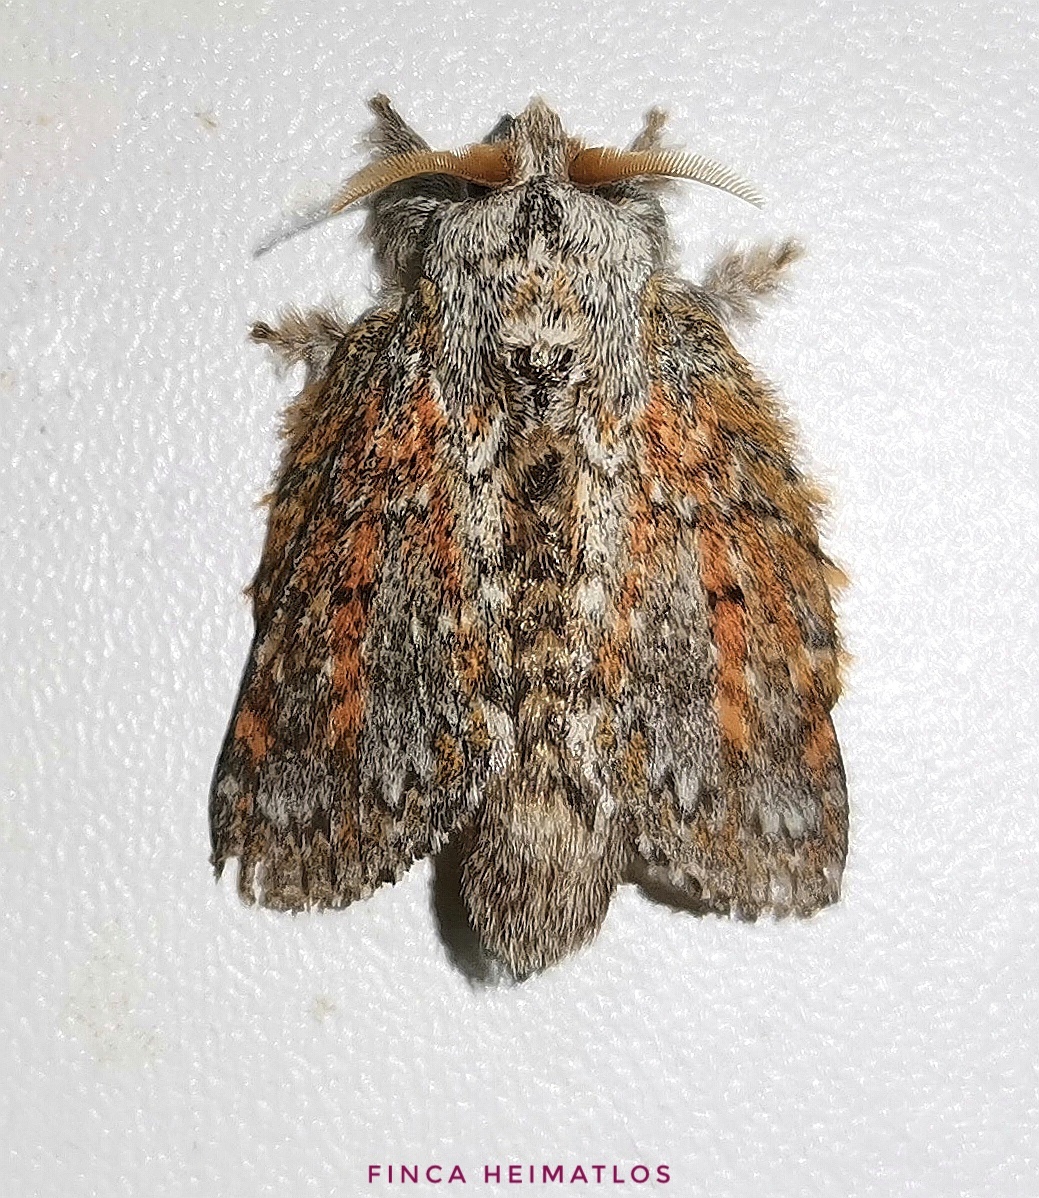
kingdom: Animalia
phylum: Arthropoda
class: Insecta
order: Lepidoptera
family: Lasiocampidae
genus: Euglyphis
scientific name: Euglyphis adusta
